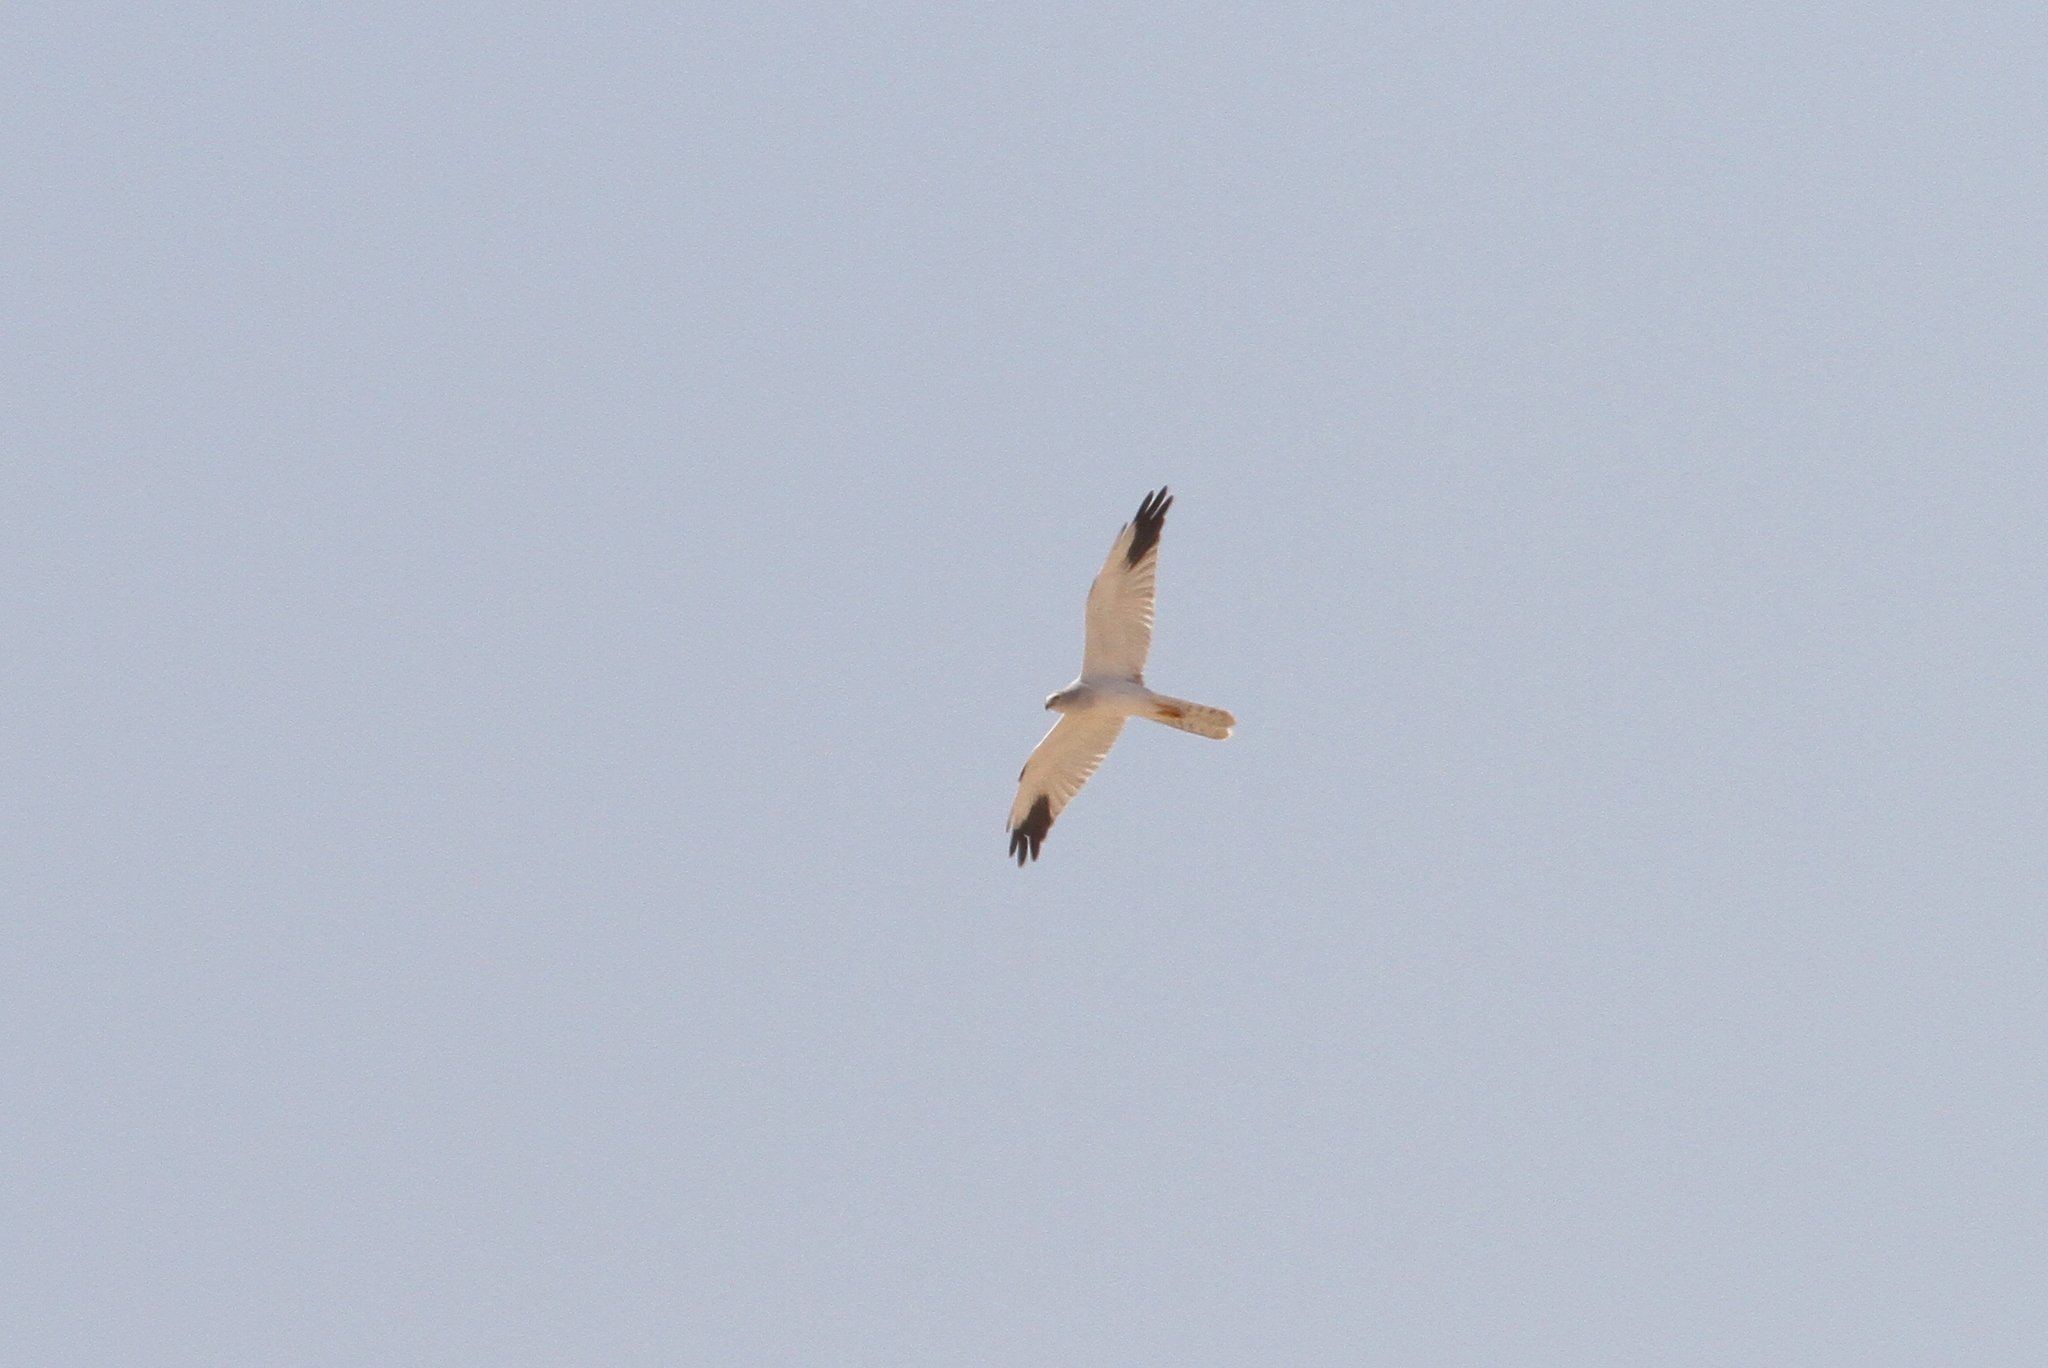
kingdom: Animalia
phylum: Chordata
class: Aves
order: Accipitriformes
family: Accipitridae
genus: Circus
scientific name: Circus macrourus
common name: Pallid harrier
